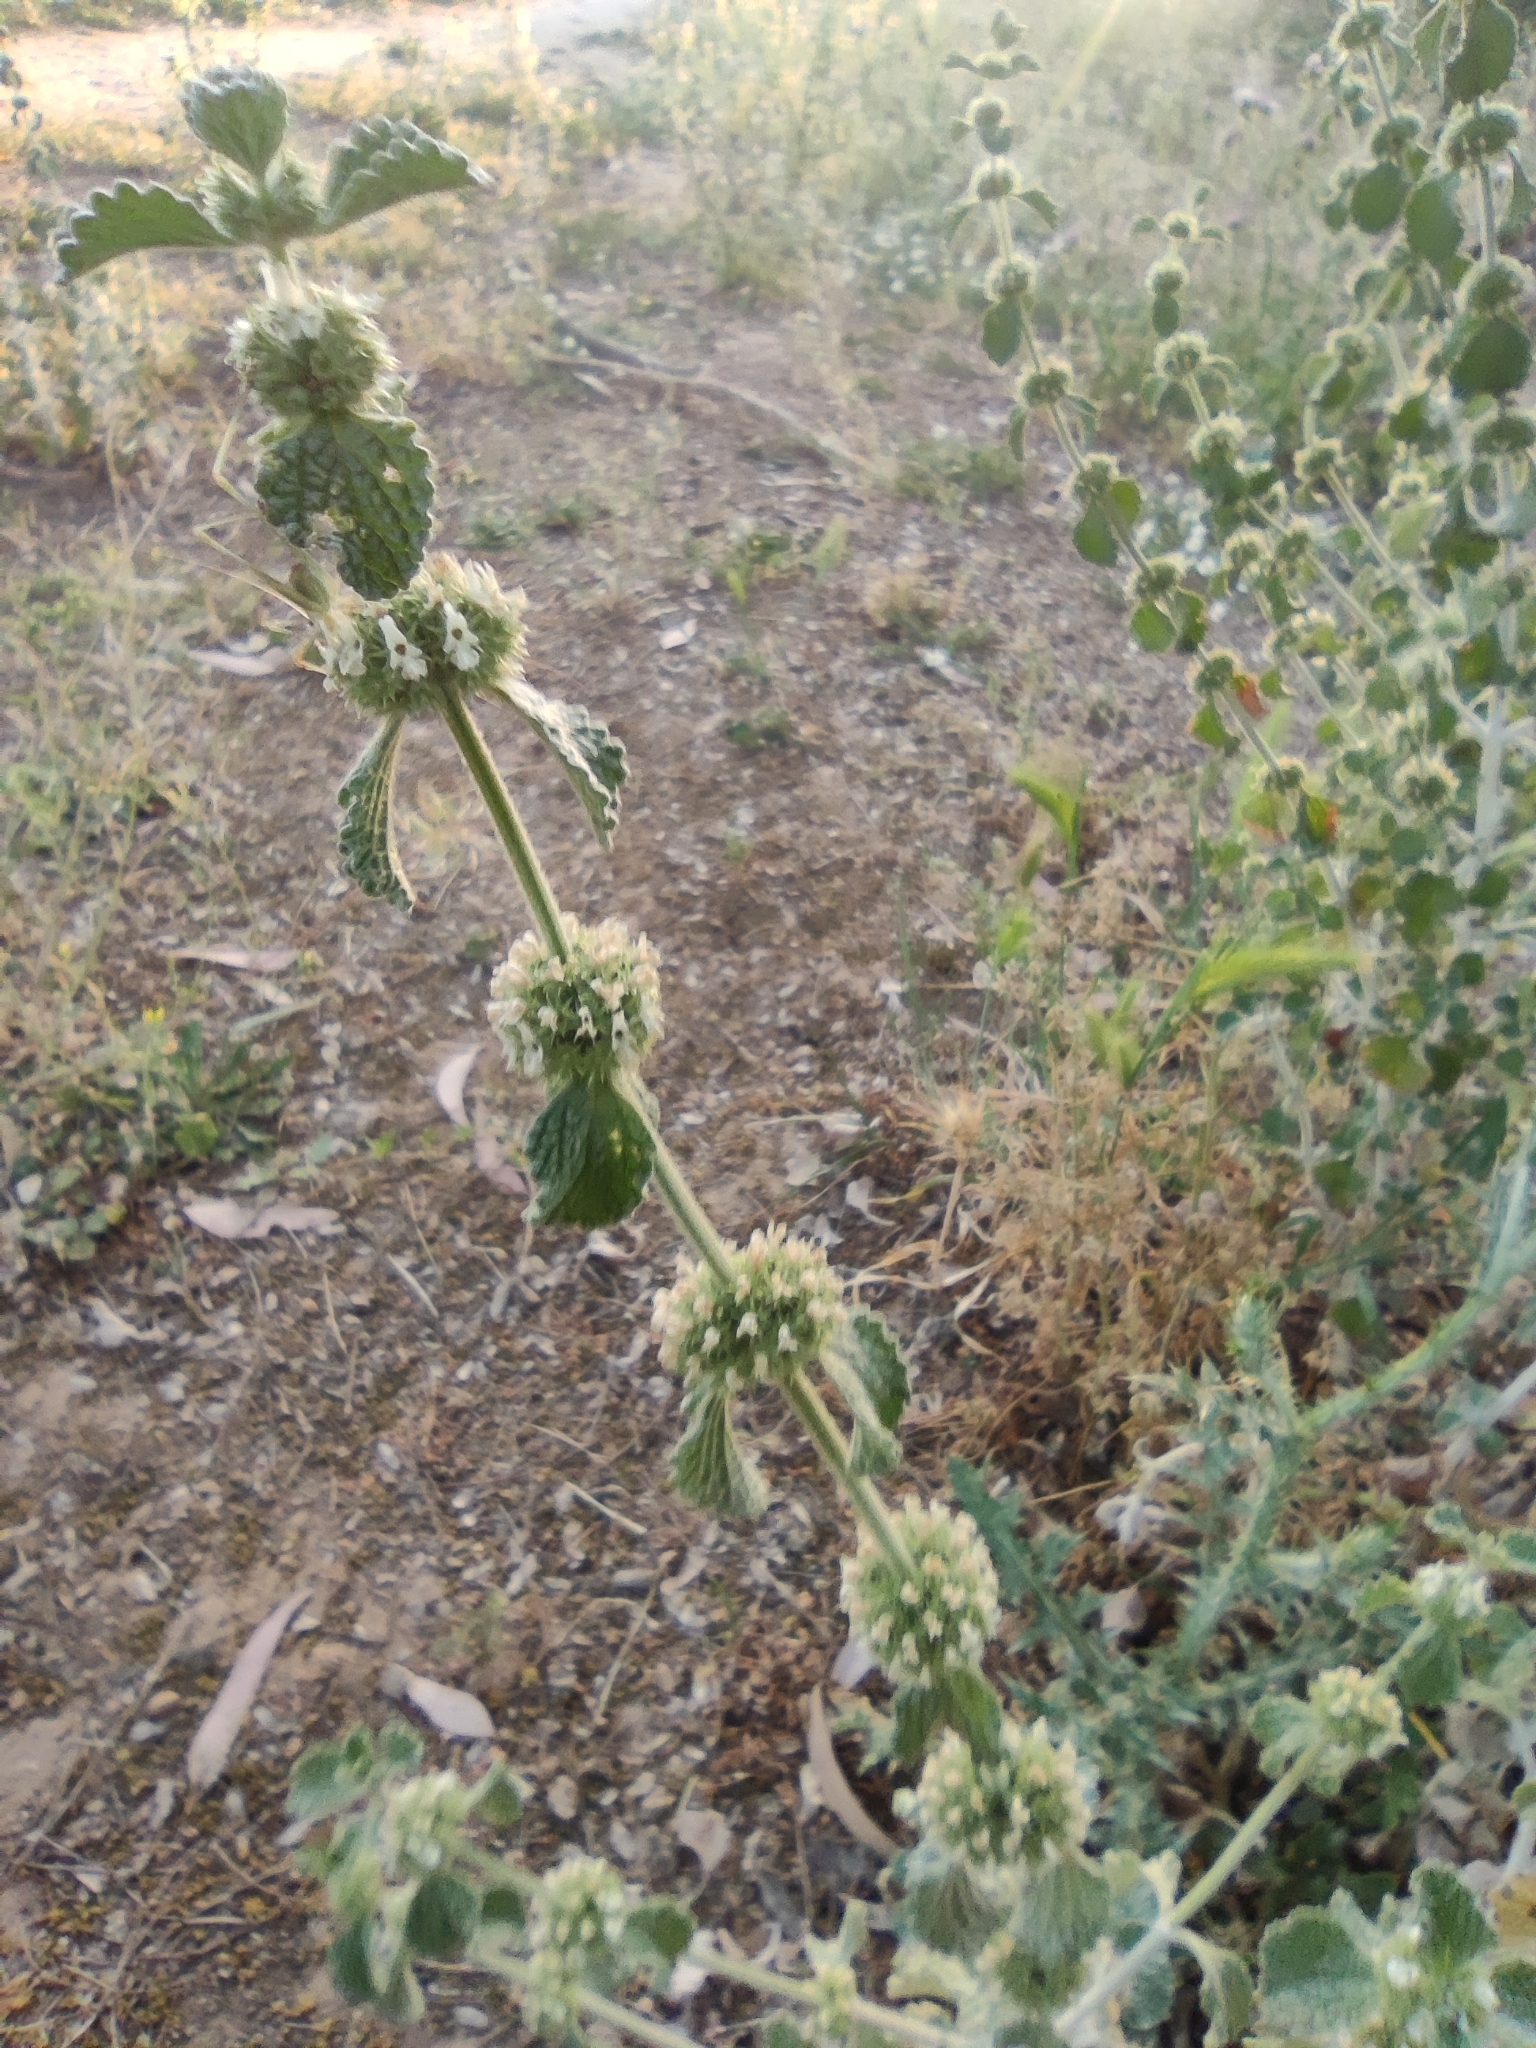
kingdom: Plantae
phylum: Tracheophyta
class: Magnoliopsida
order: Lamiales
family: Lamiaceae
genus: Marrubium
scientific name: Marrubium vulgare
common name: Horehound
